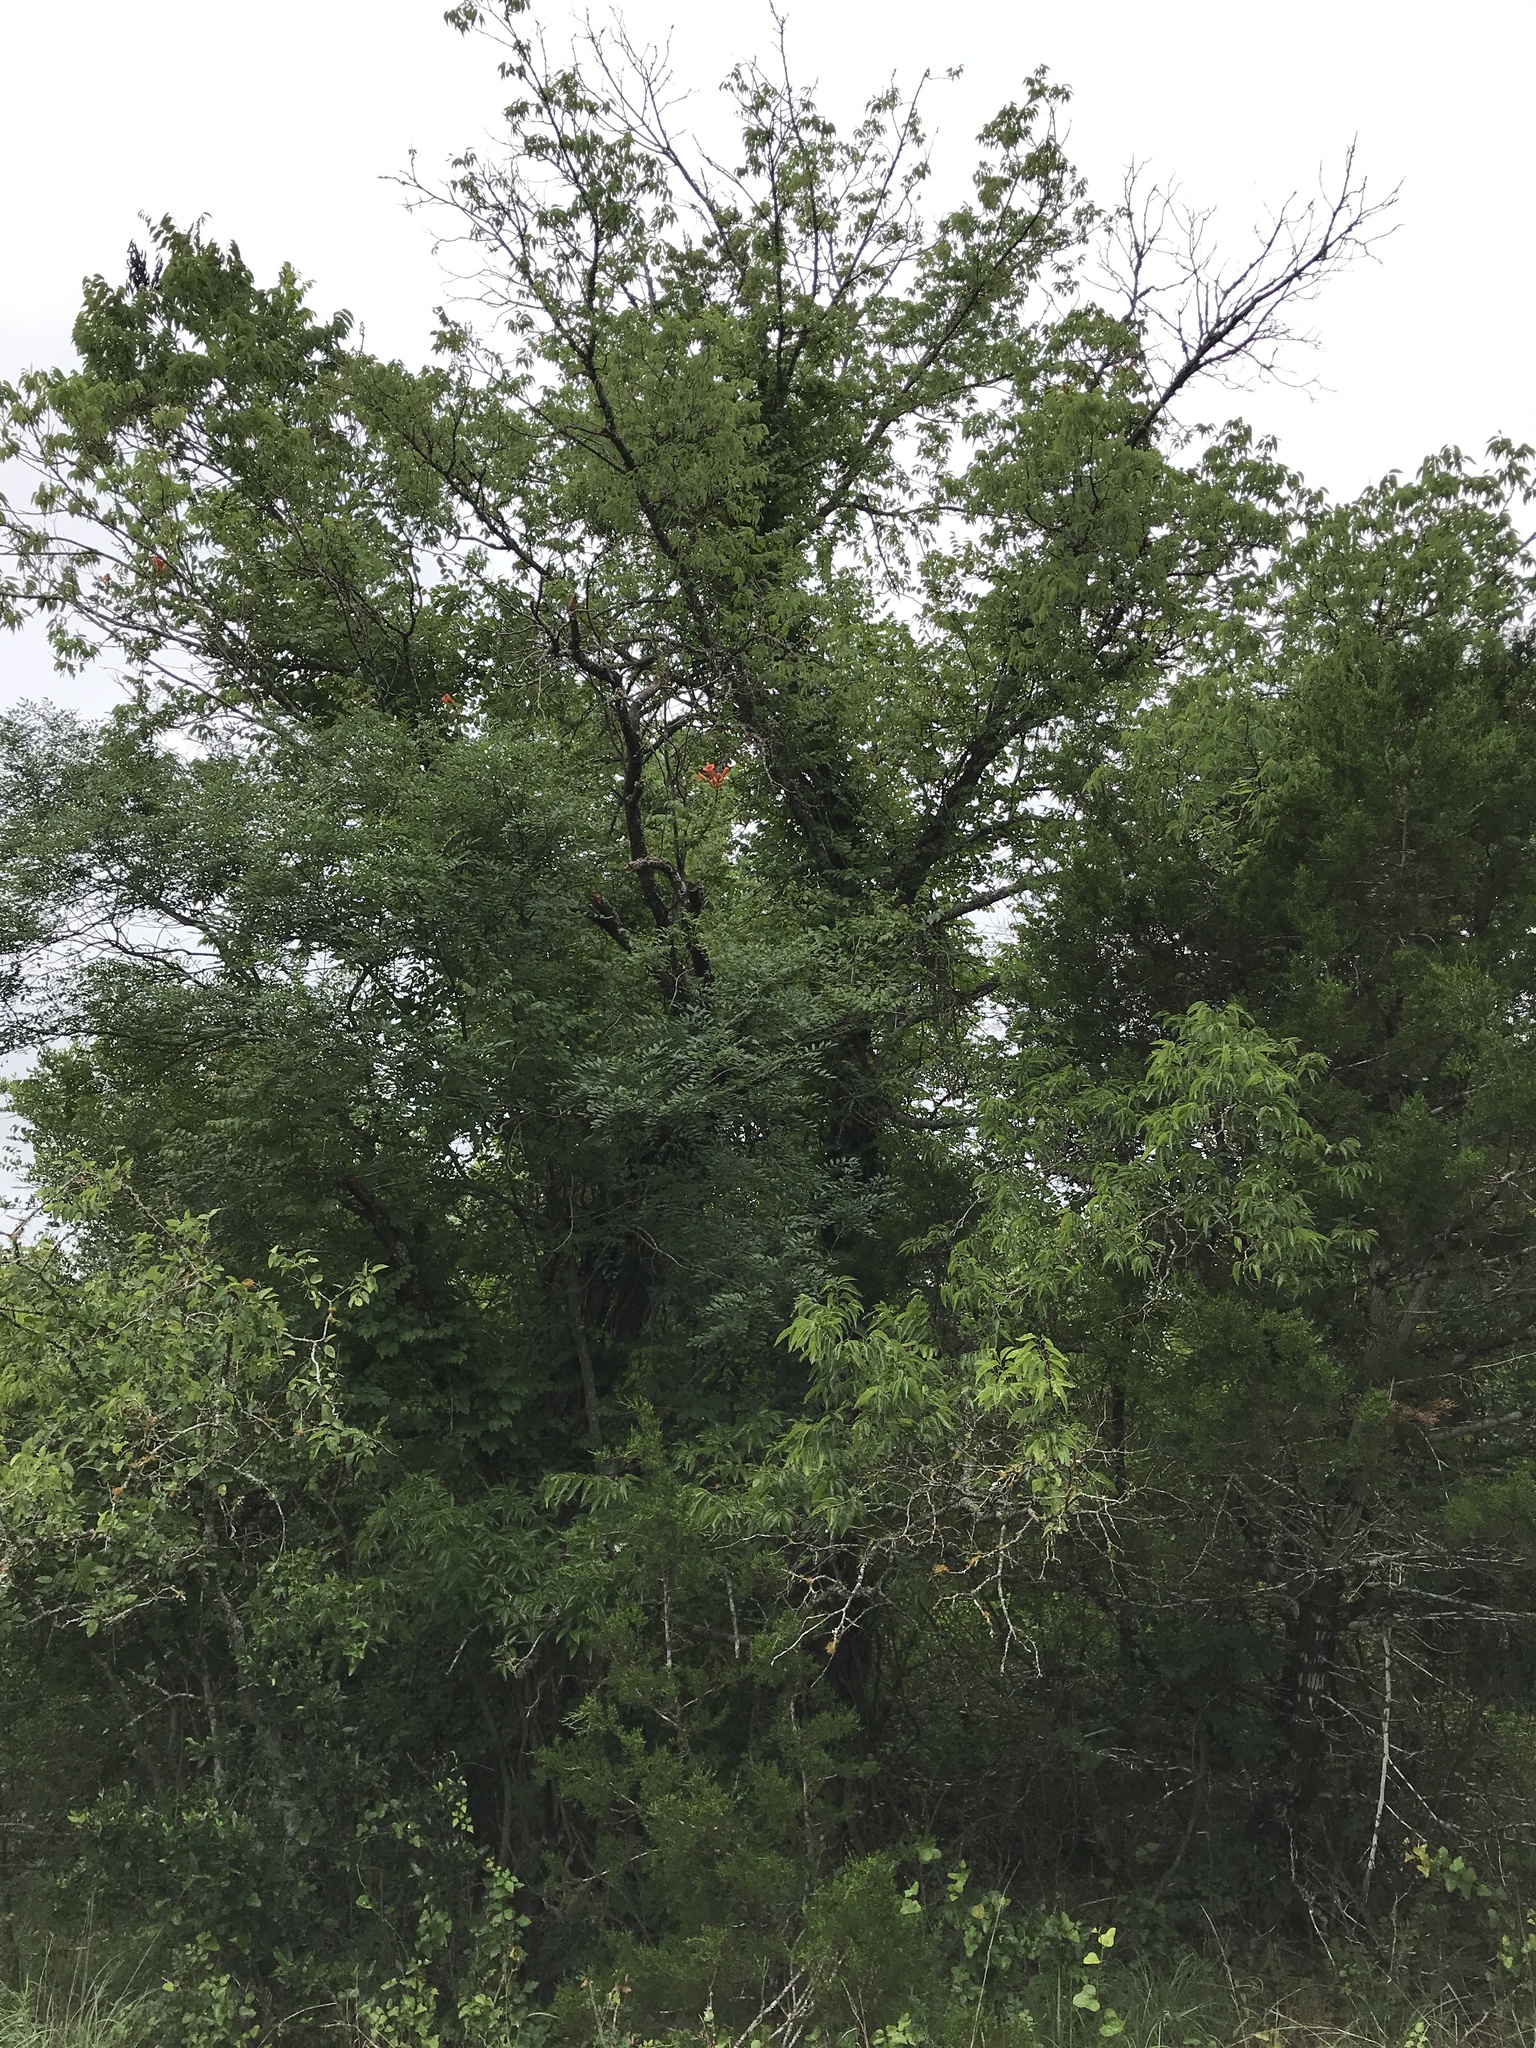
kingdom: Plantae
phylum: Tracheophyta
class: Magnoliopsida
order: Rosales
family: Cannabaceae
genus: Celtis
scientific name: Celtis laevigata
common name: Sugarberry
